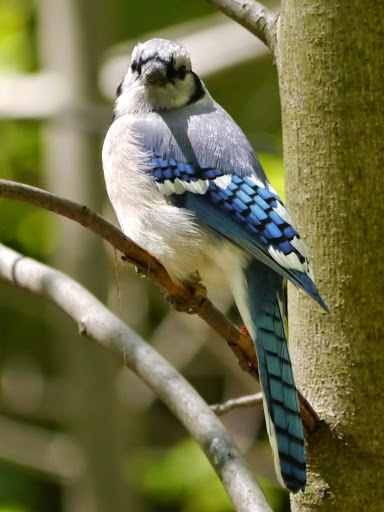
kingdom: Animalia
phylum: Chordata
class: Aves
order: Passeriformes
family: Corvidae
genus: Cyanocitta
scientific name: Cyanocitta cristata
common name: Blue jay
